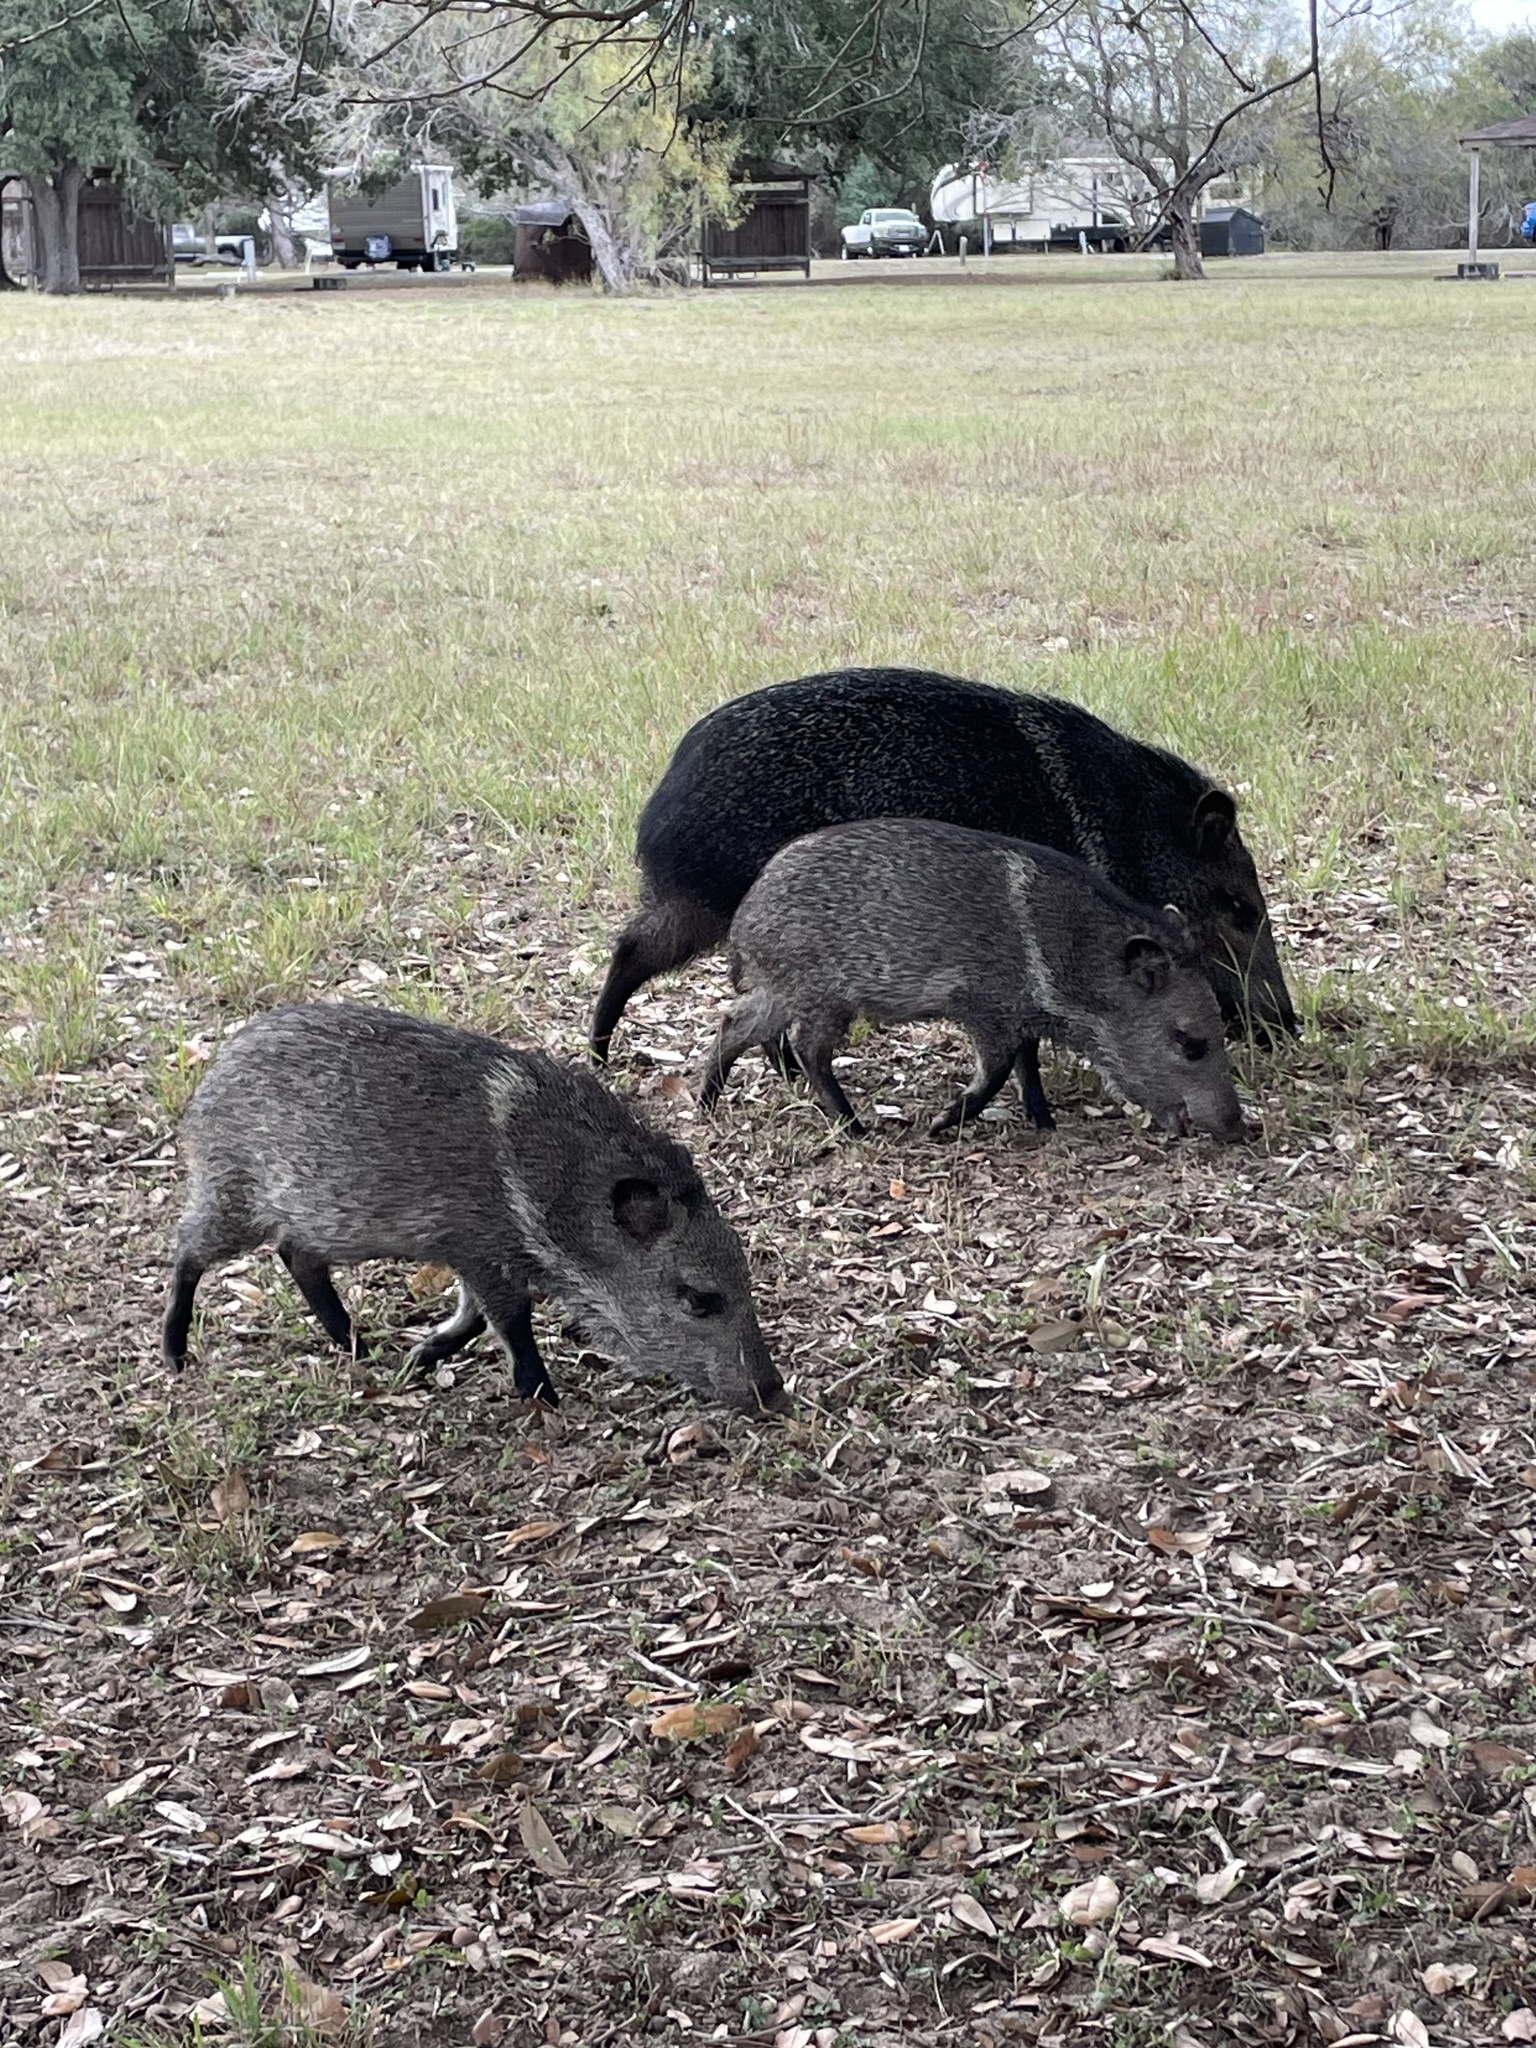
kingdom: Animalia
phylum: Chordata
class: Mammalia
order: Artiodactyla
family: Tayassuidae
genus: Pecari
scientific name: Pecari tajacu
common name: Collared peccary
